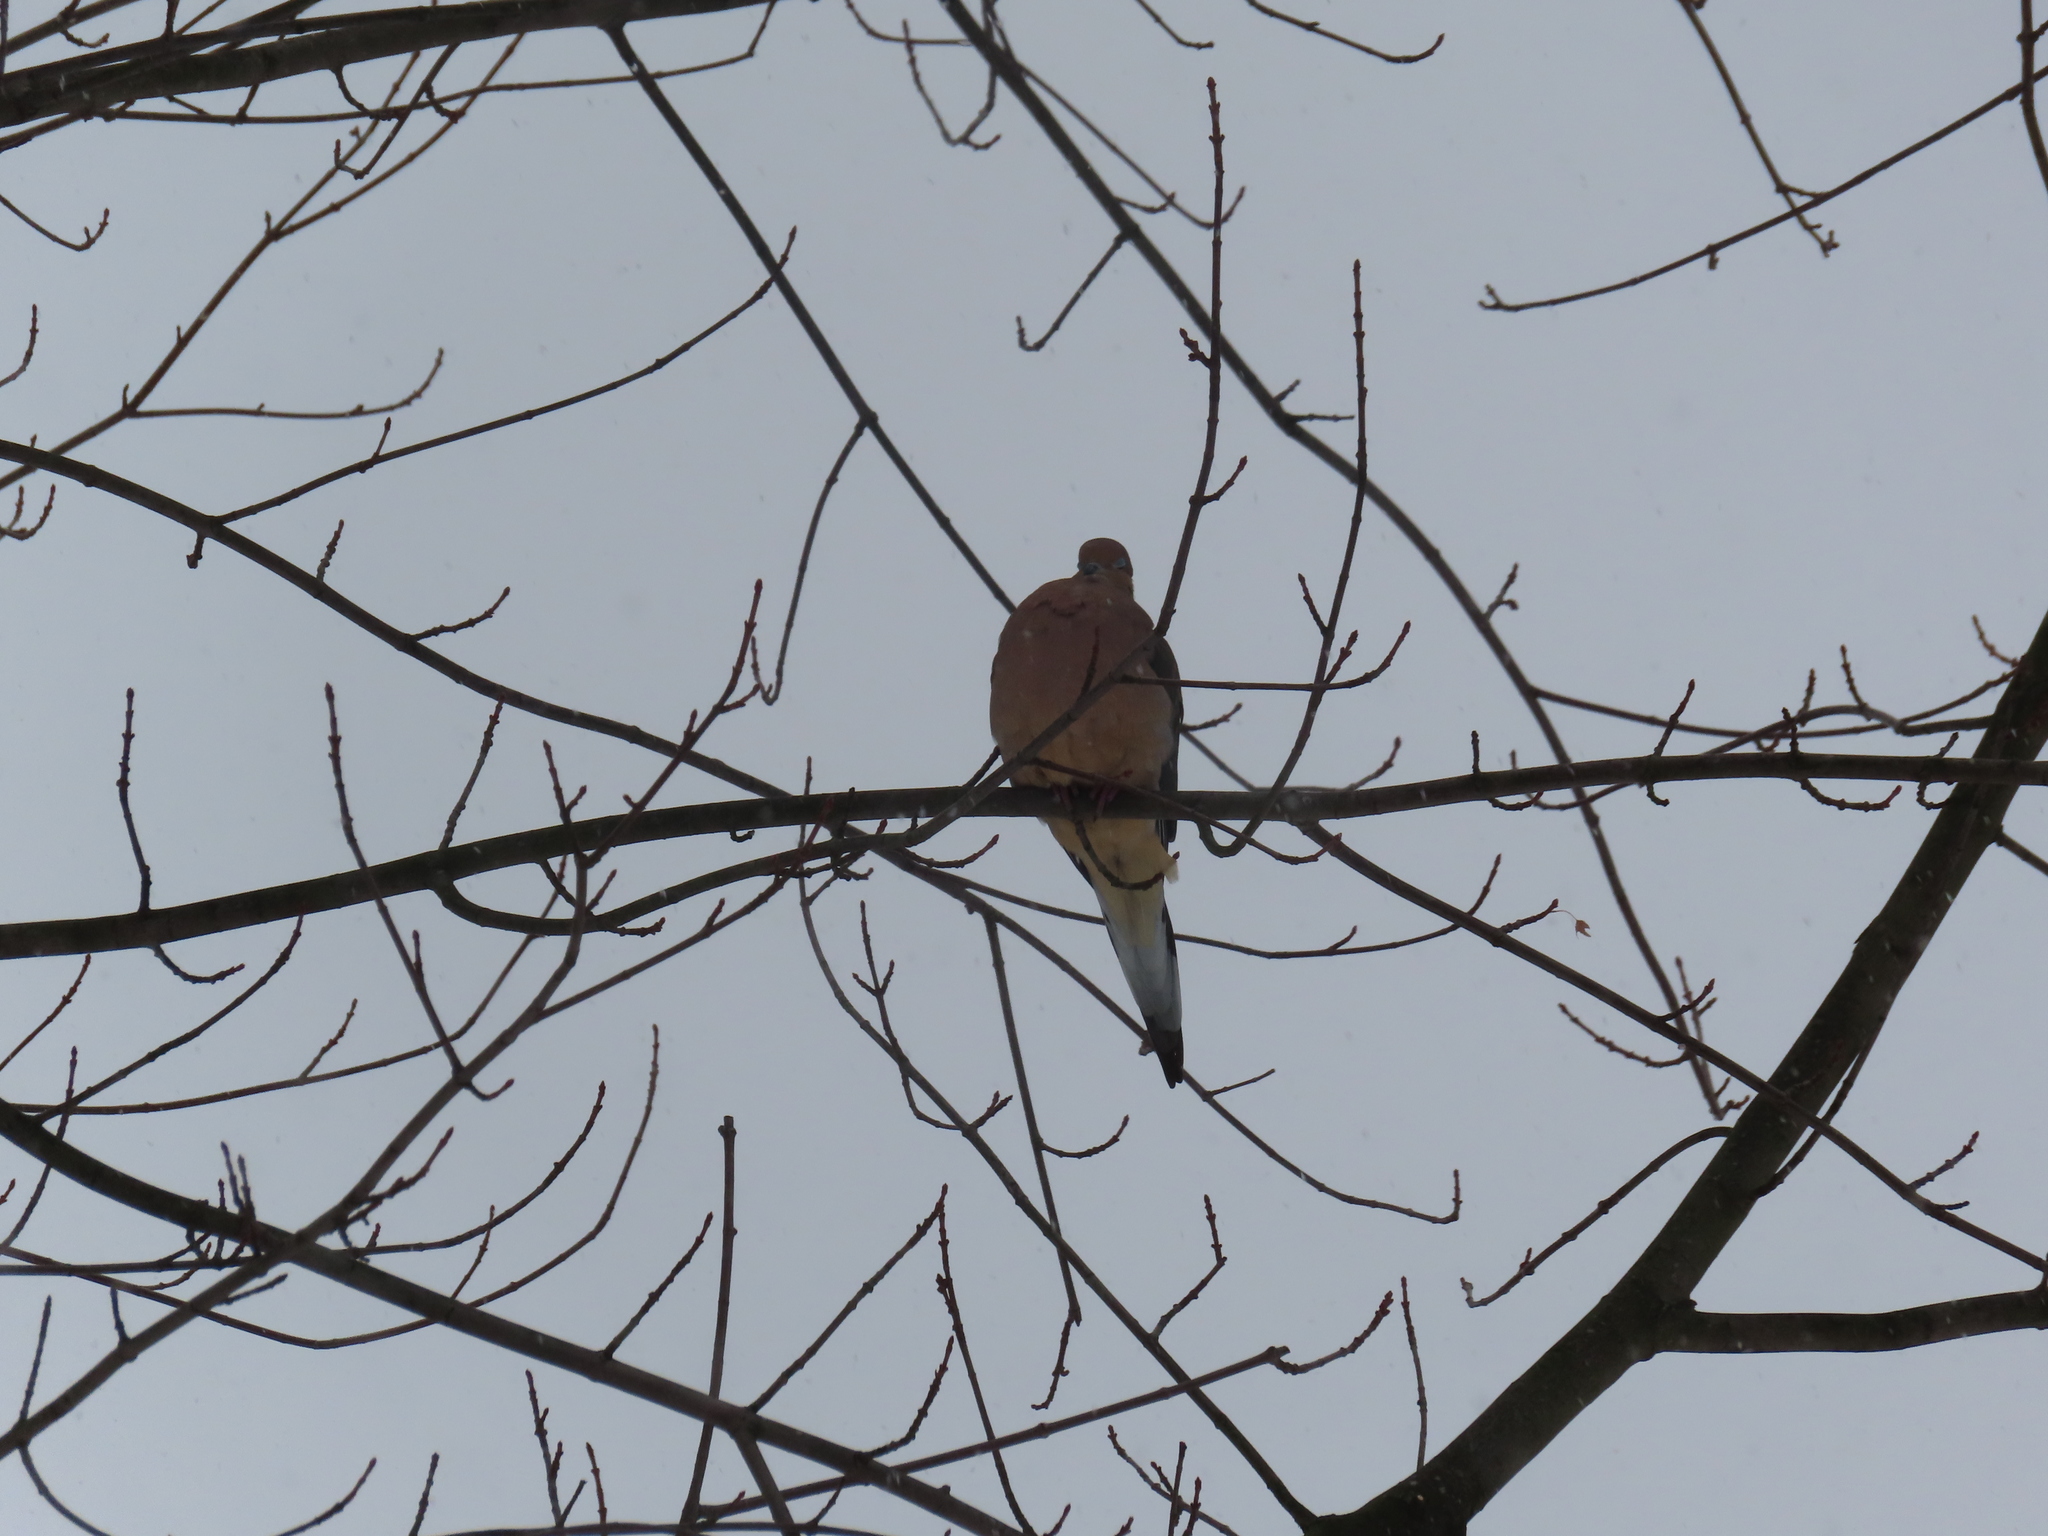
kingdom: Animalia
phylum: Chordata
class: Aves
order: Columbiformes
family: Columbidae
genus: Zenaida
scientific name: Zenaida macroura
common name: Mourning dove
